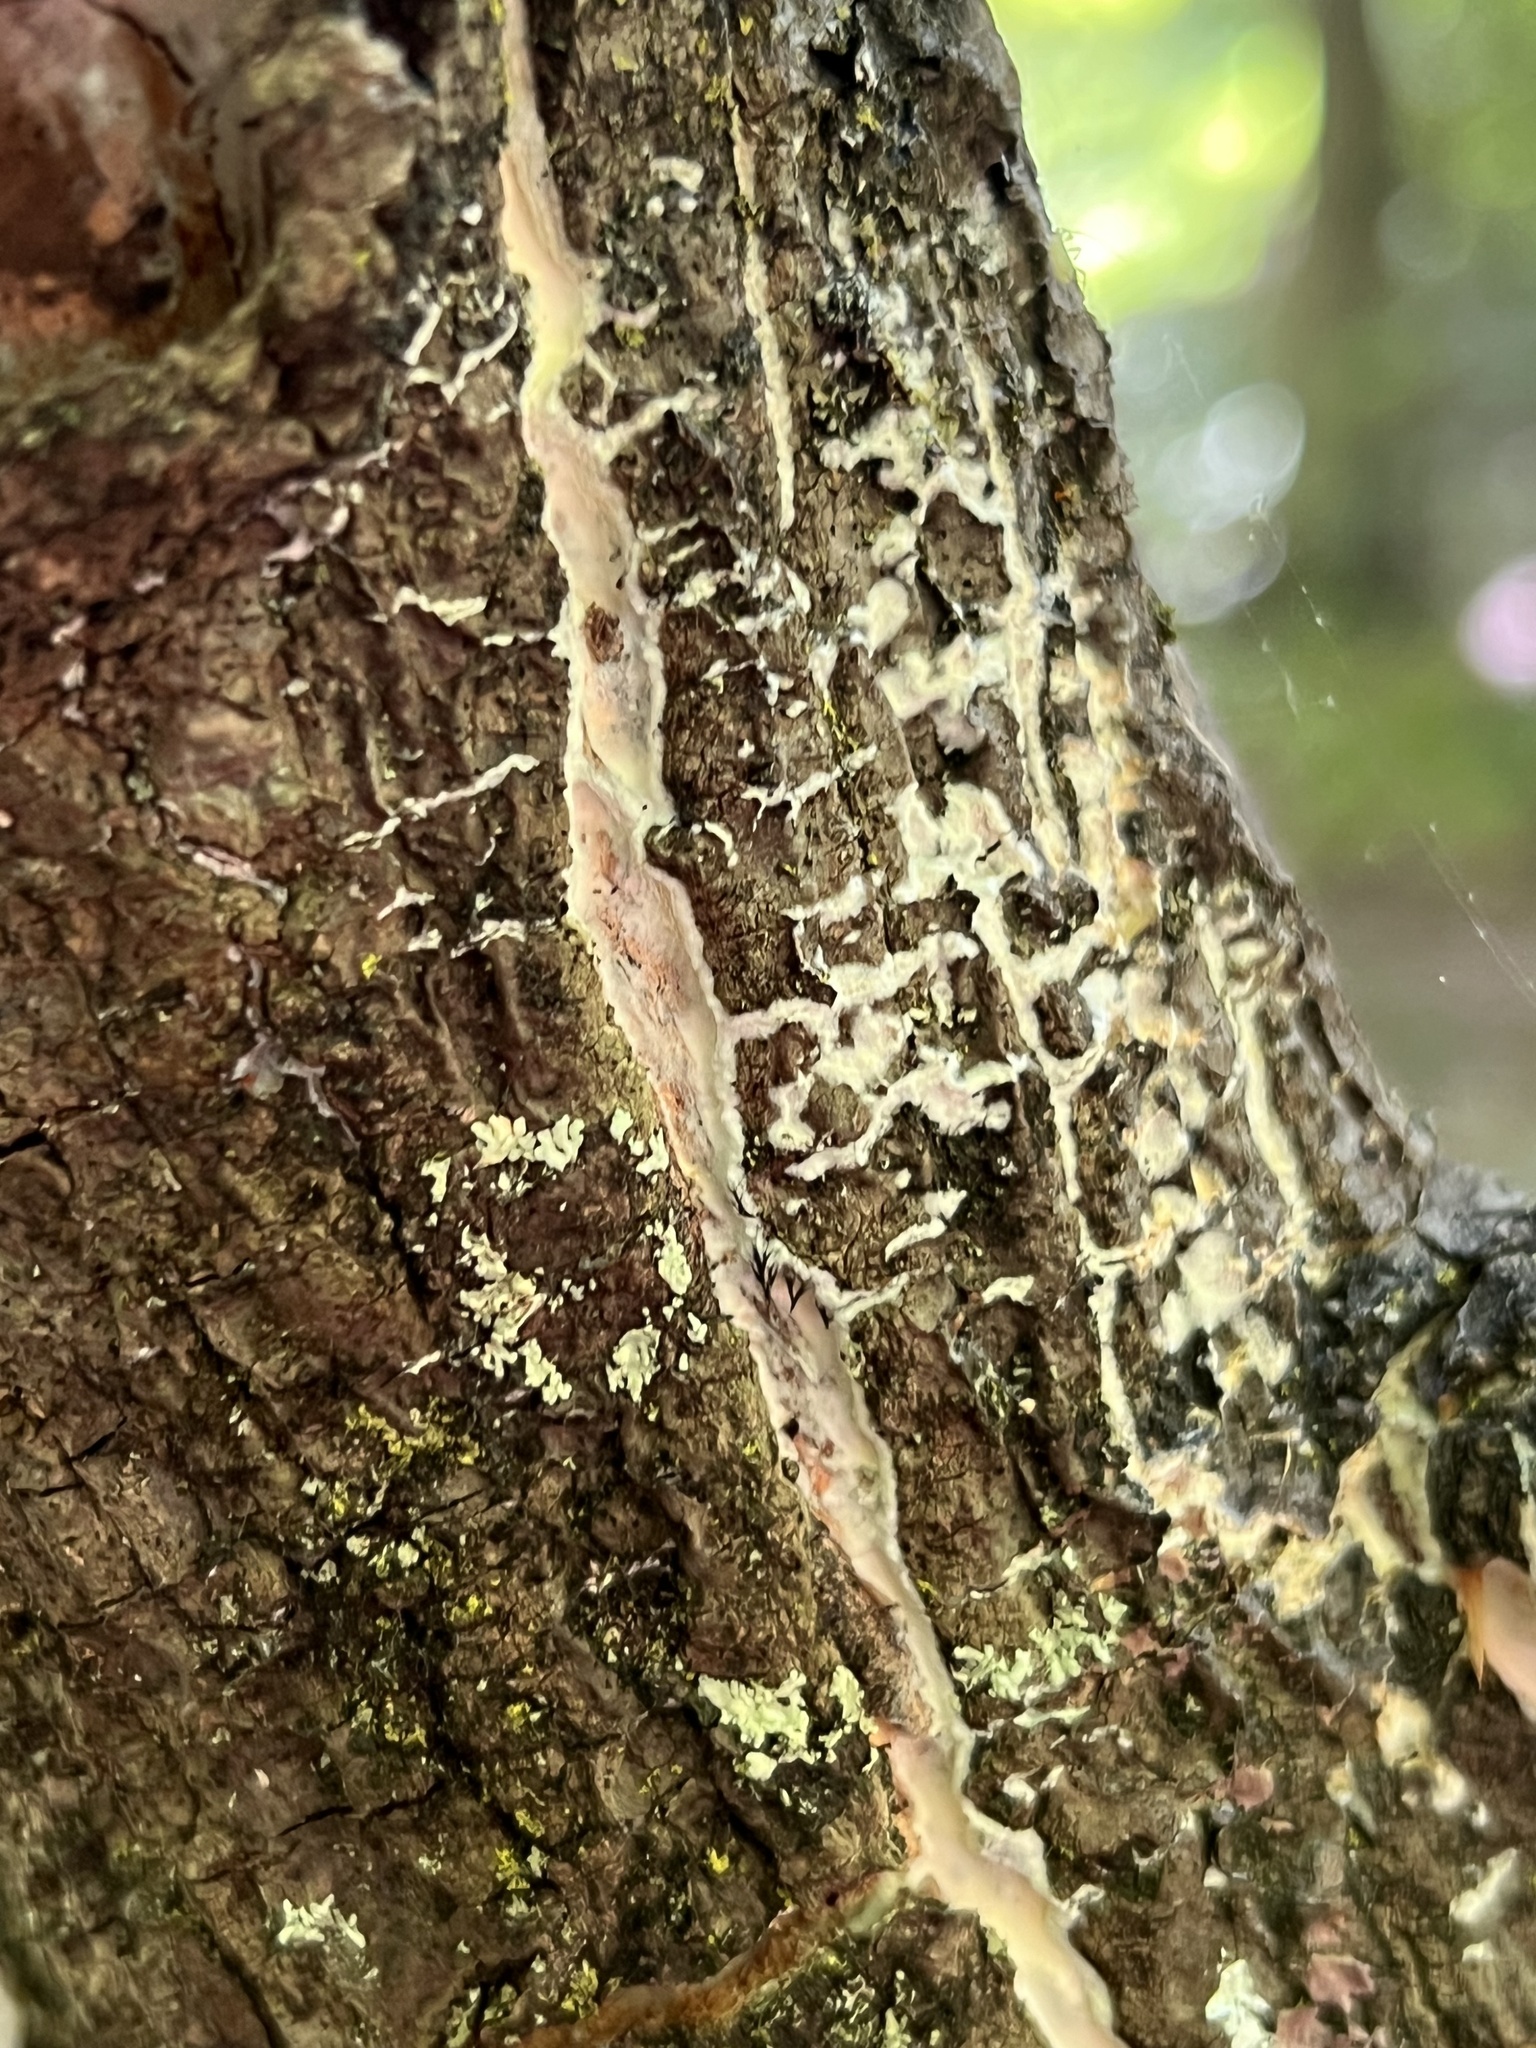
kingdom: Fungi
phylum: Basidiomycota
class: Agaricomycetes
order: Polyporales
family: Phanerochaetaceae
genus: Phlebiopsis
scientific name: Phlebiopsis crassa
